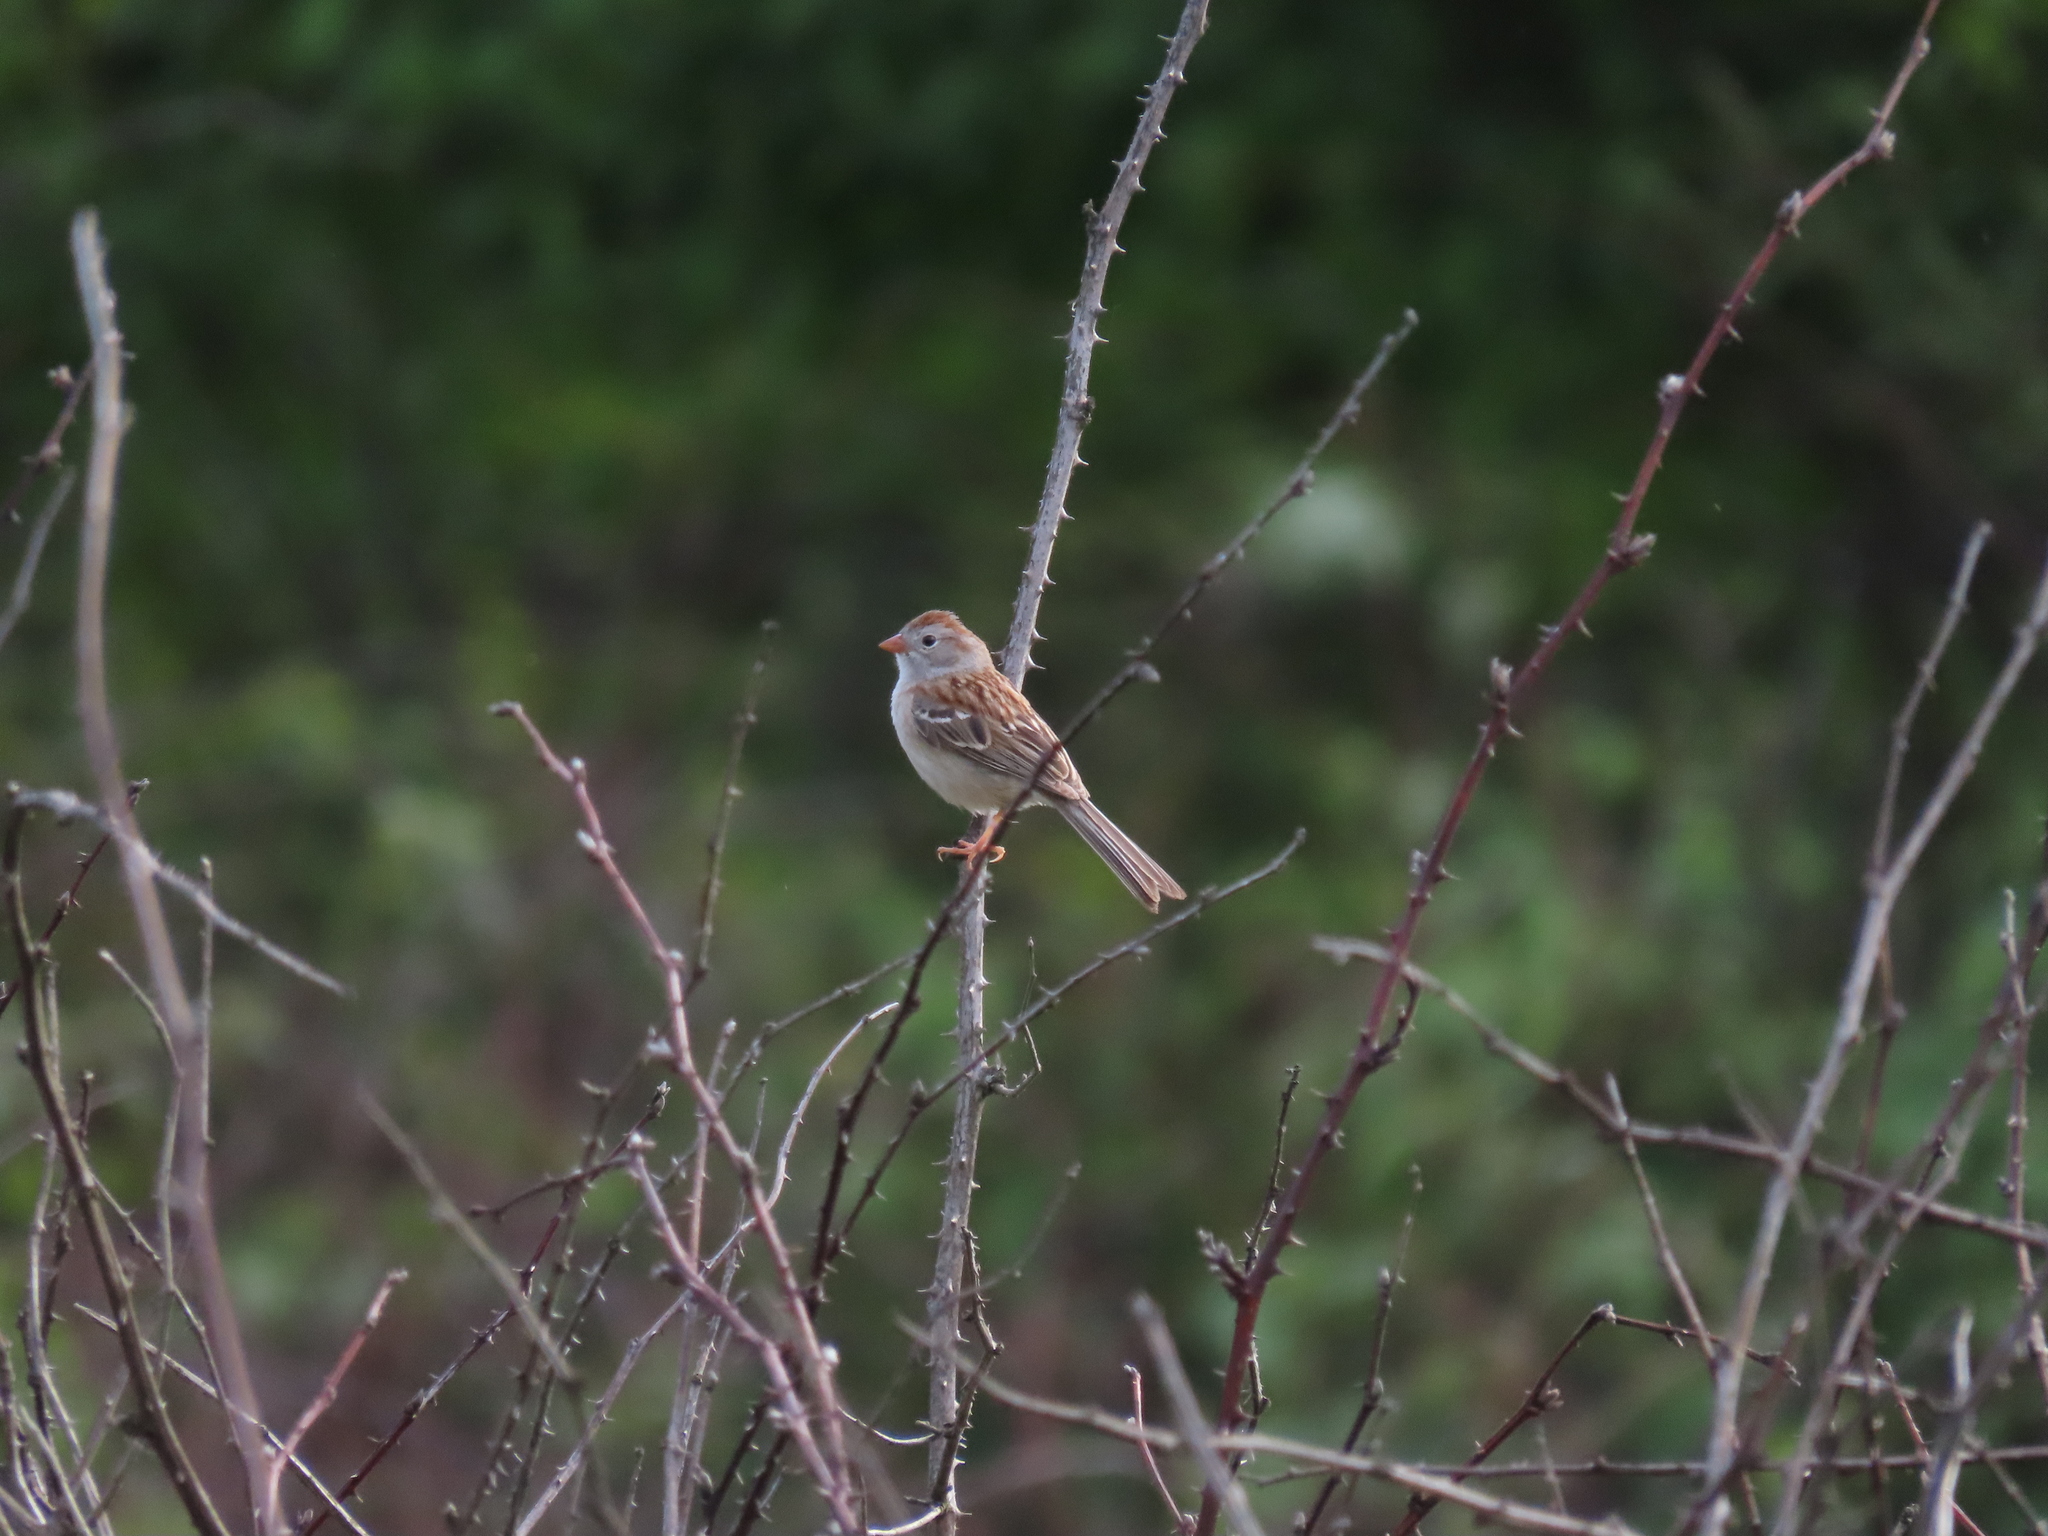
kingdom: Animalia
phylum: Chordata
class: Aves
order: Passeriformes
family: Passerellidae
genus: Spizella
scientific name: Spizella pusilla
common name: Field sparrow
